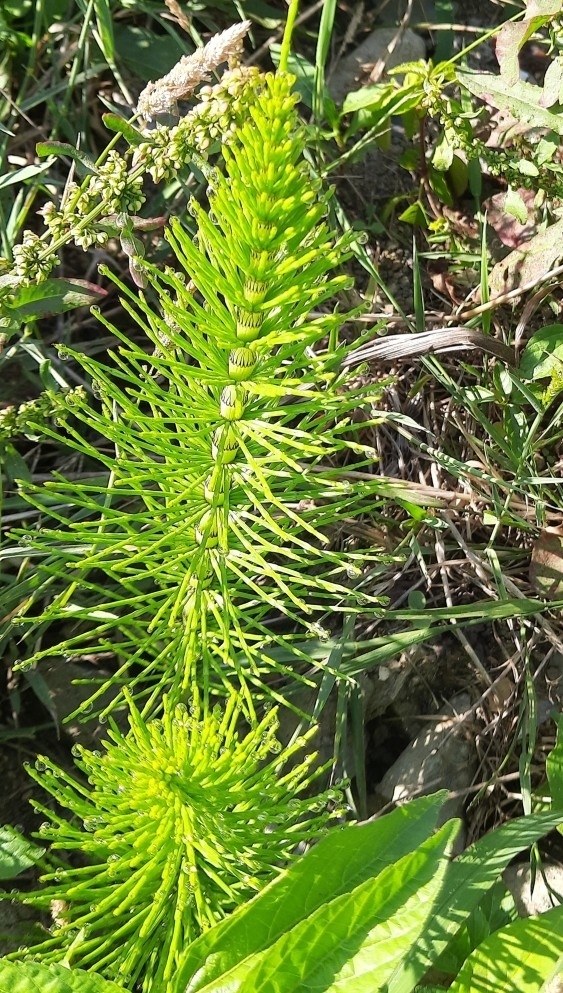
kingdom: Plantae
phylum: Tracheophyta
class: Polypodiopsida
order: Equisetales
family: Equisetaceae
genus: Equisetum
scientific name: Equisetum telmateia
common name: Great horsetail
